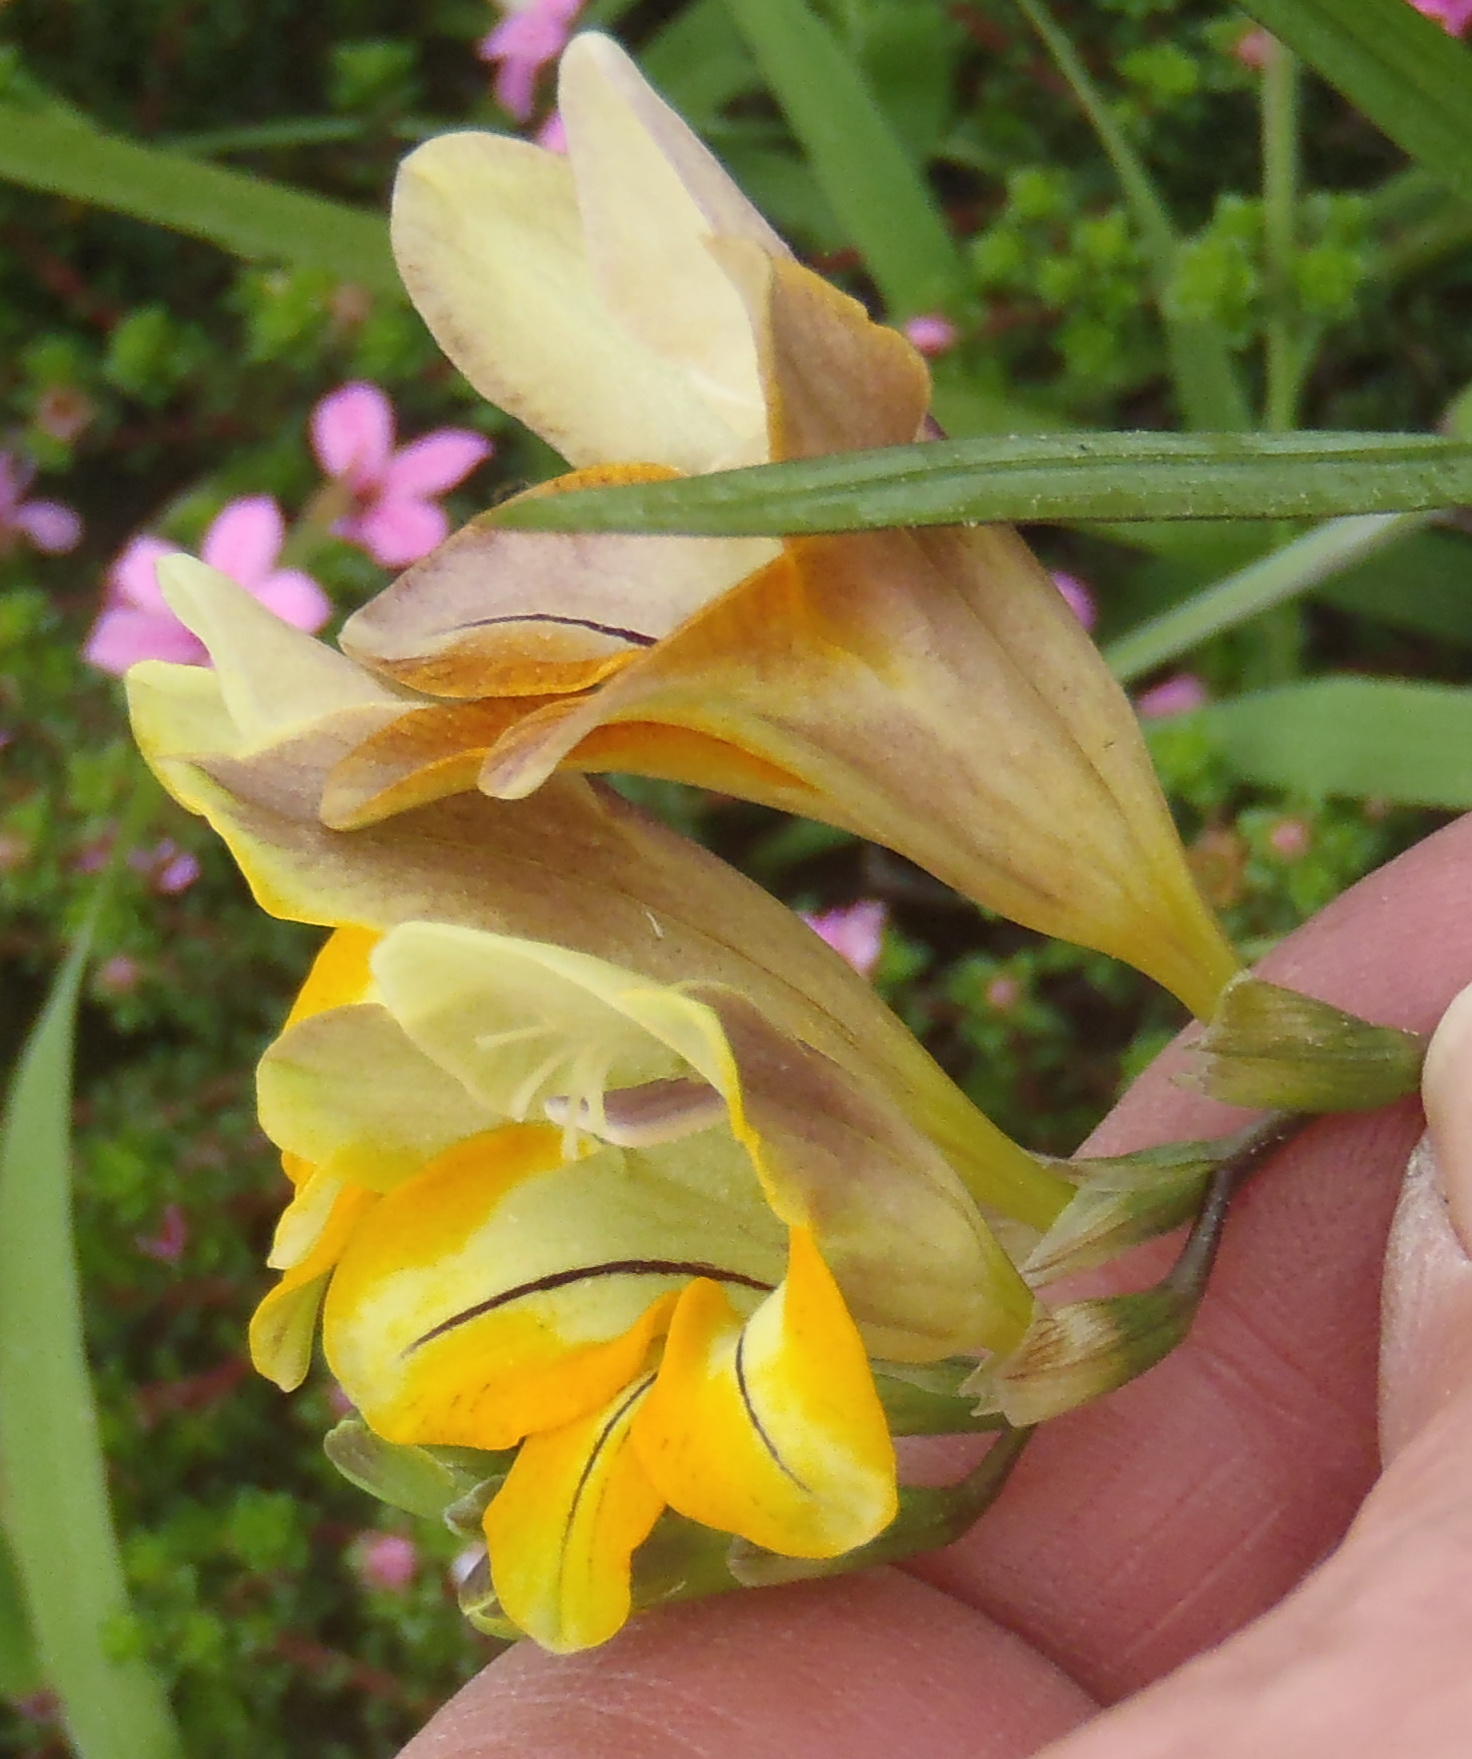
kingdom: Plantae
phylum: Tracheophyta
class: Liliopsida
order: Asparagales
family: Iridaceae
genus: Freesia
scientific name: Freesia leichtlinii
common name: Freesia
